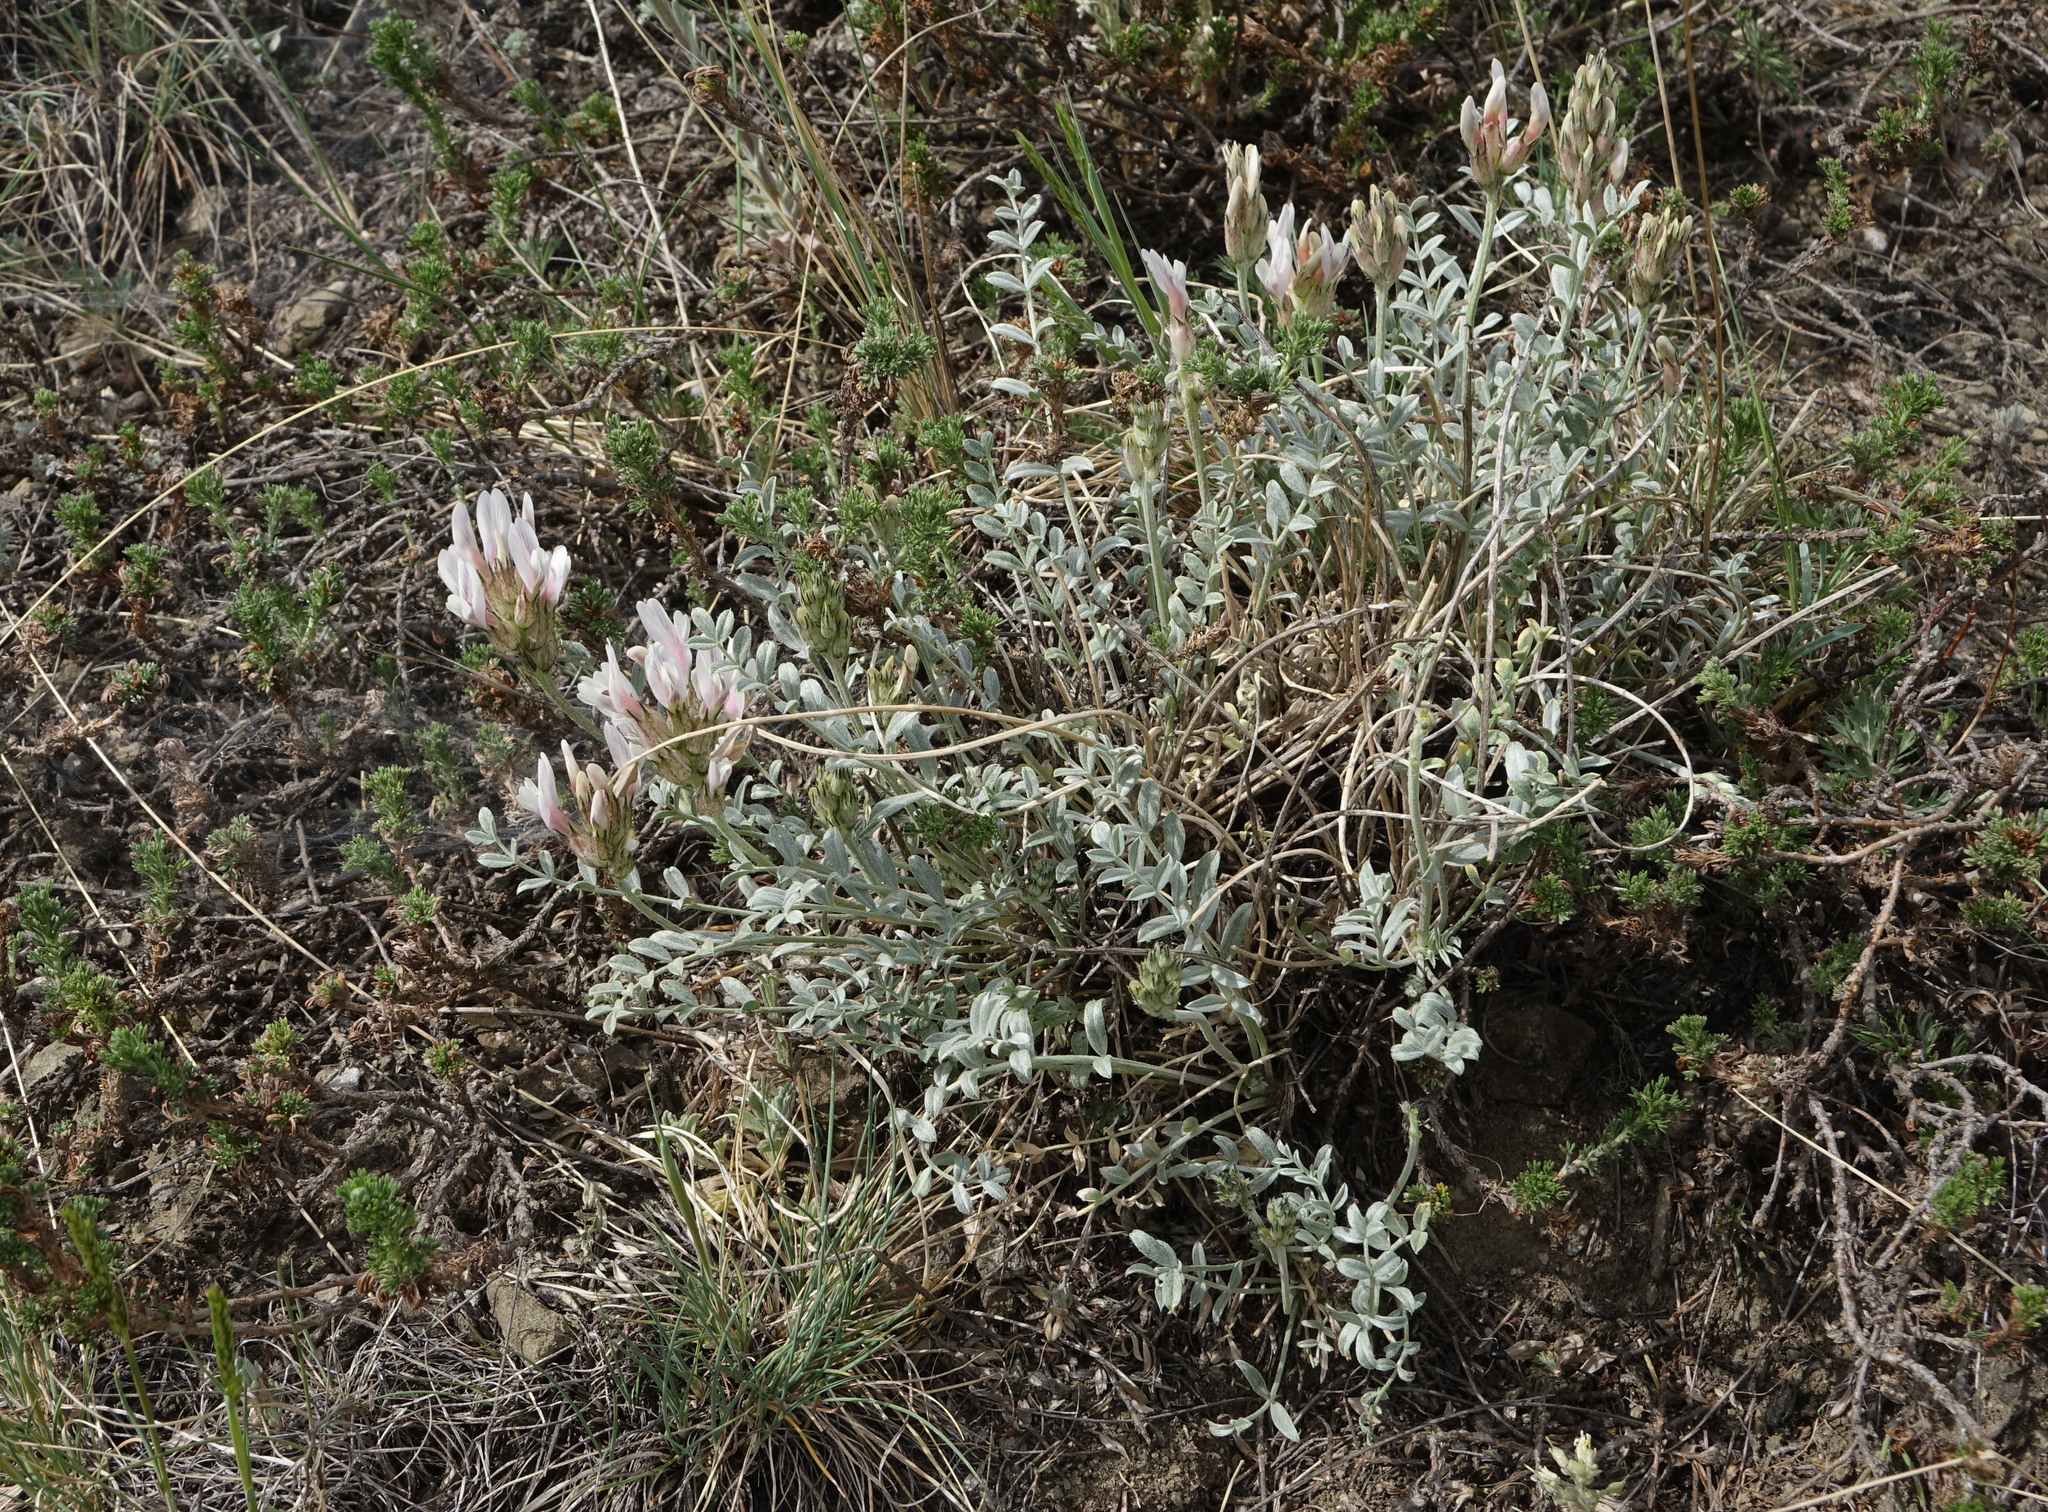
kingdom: Plantae
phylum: Tracheophyta
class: Magnoliopsida
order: Fabales
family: Fabaceae
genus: Astragalus
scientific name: Astragalus dilutus
